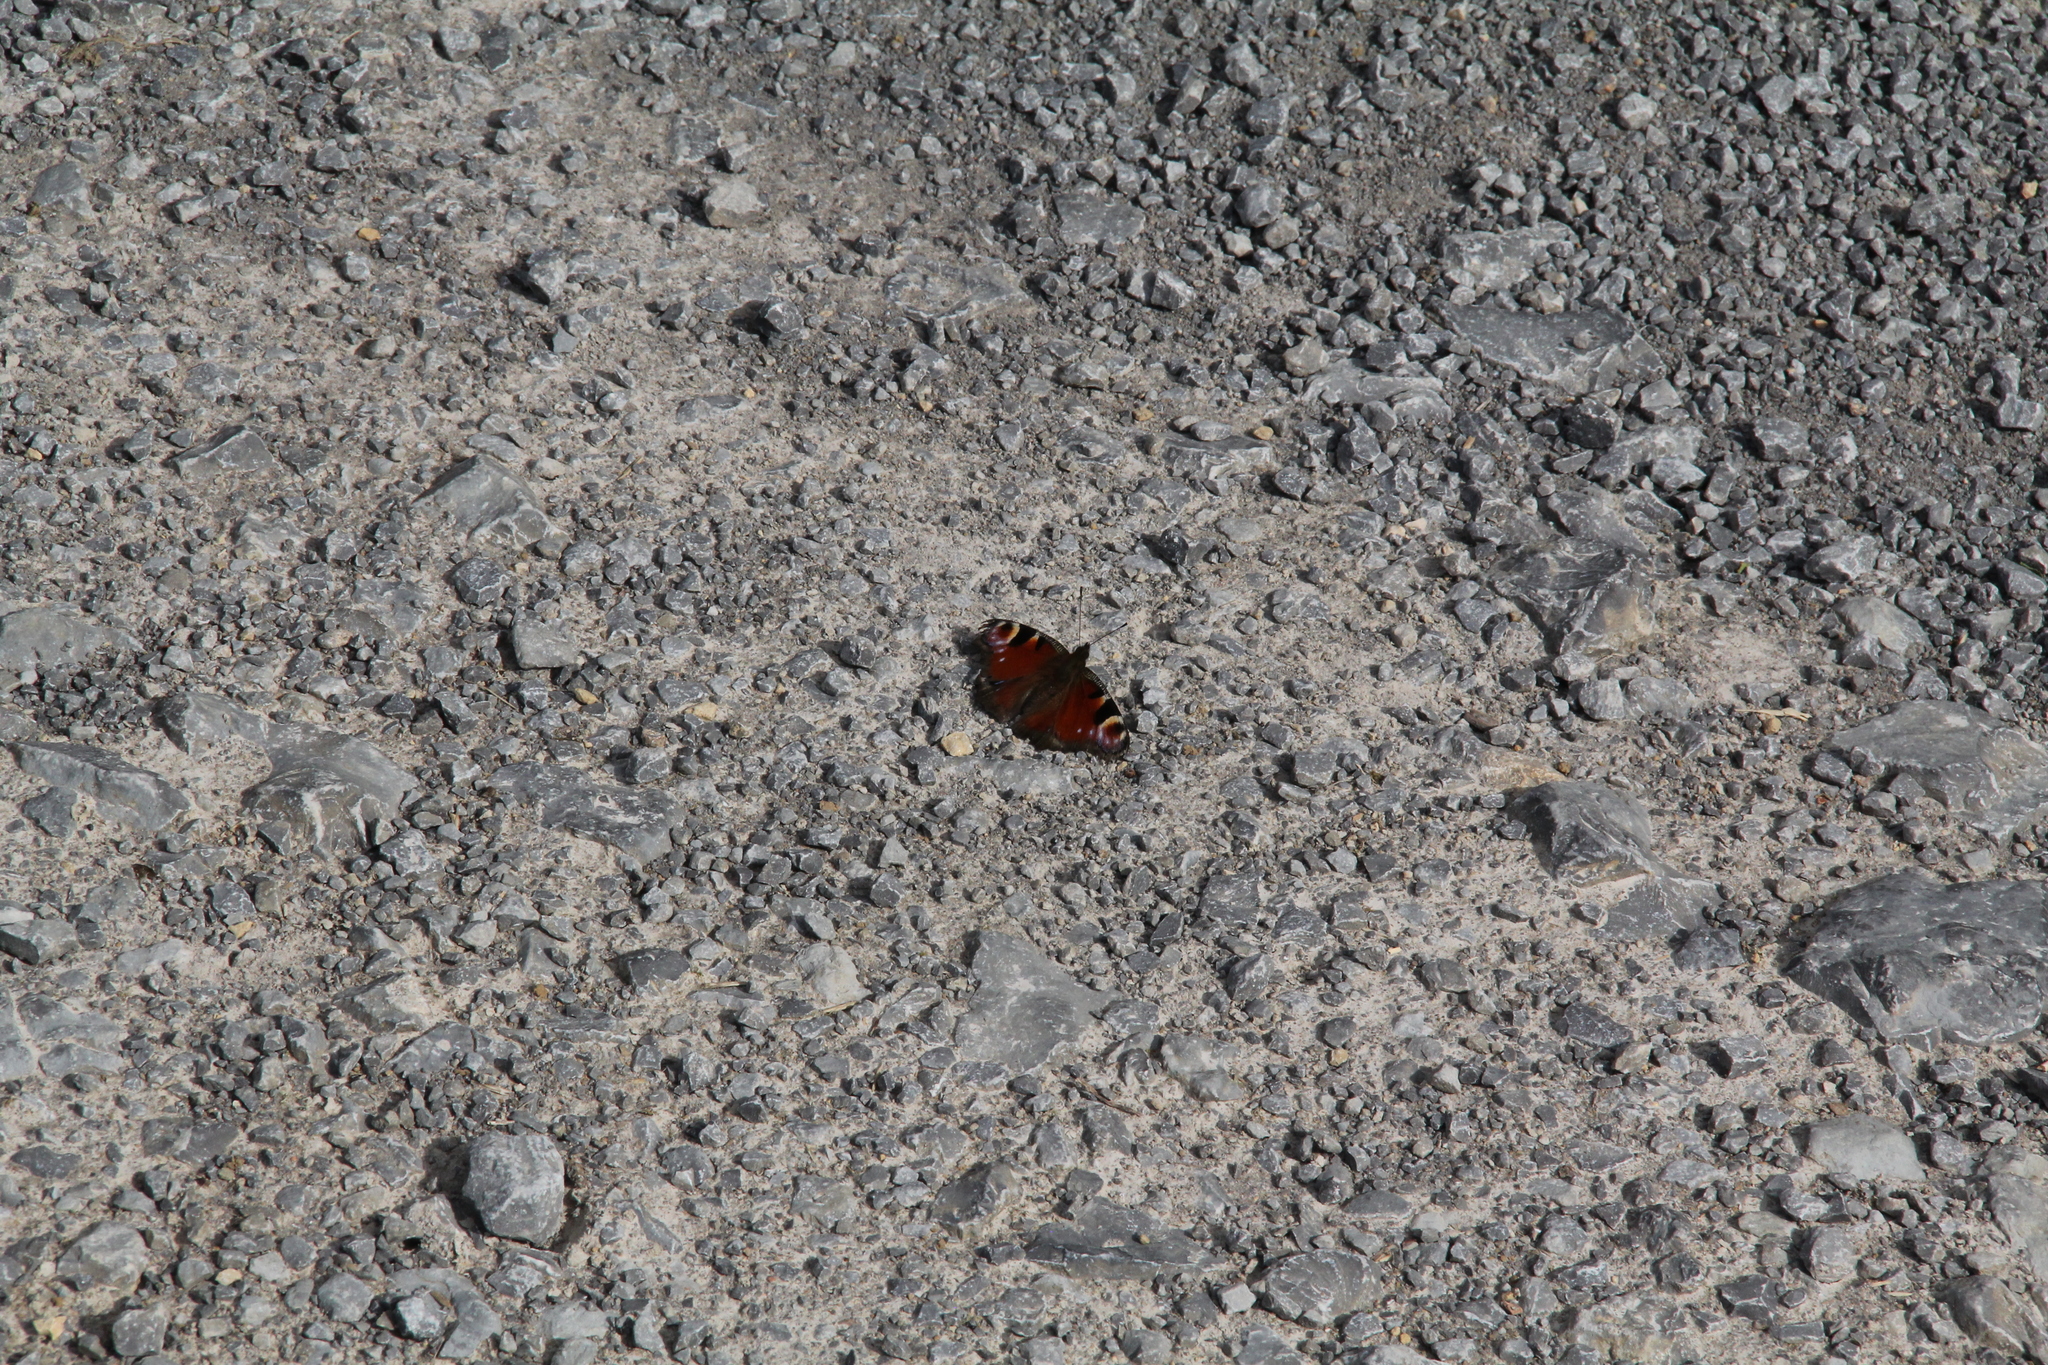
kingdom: Animalia
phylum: Arthropoda
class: Insecta
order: Lepidoptera
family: Nymphalidae
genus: Aglais
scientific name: Aglais io
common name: Peacock
